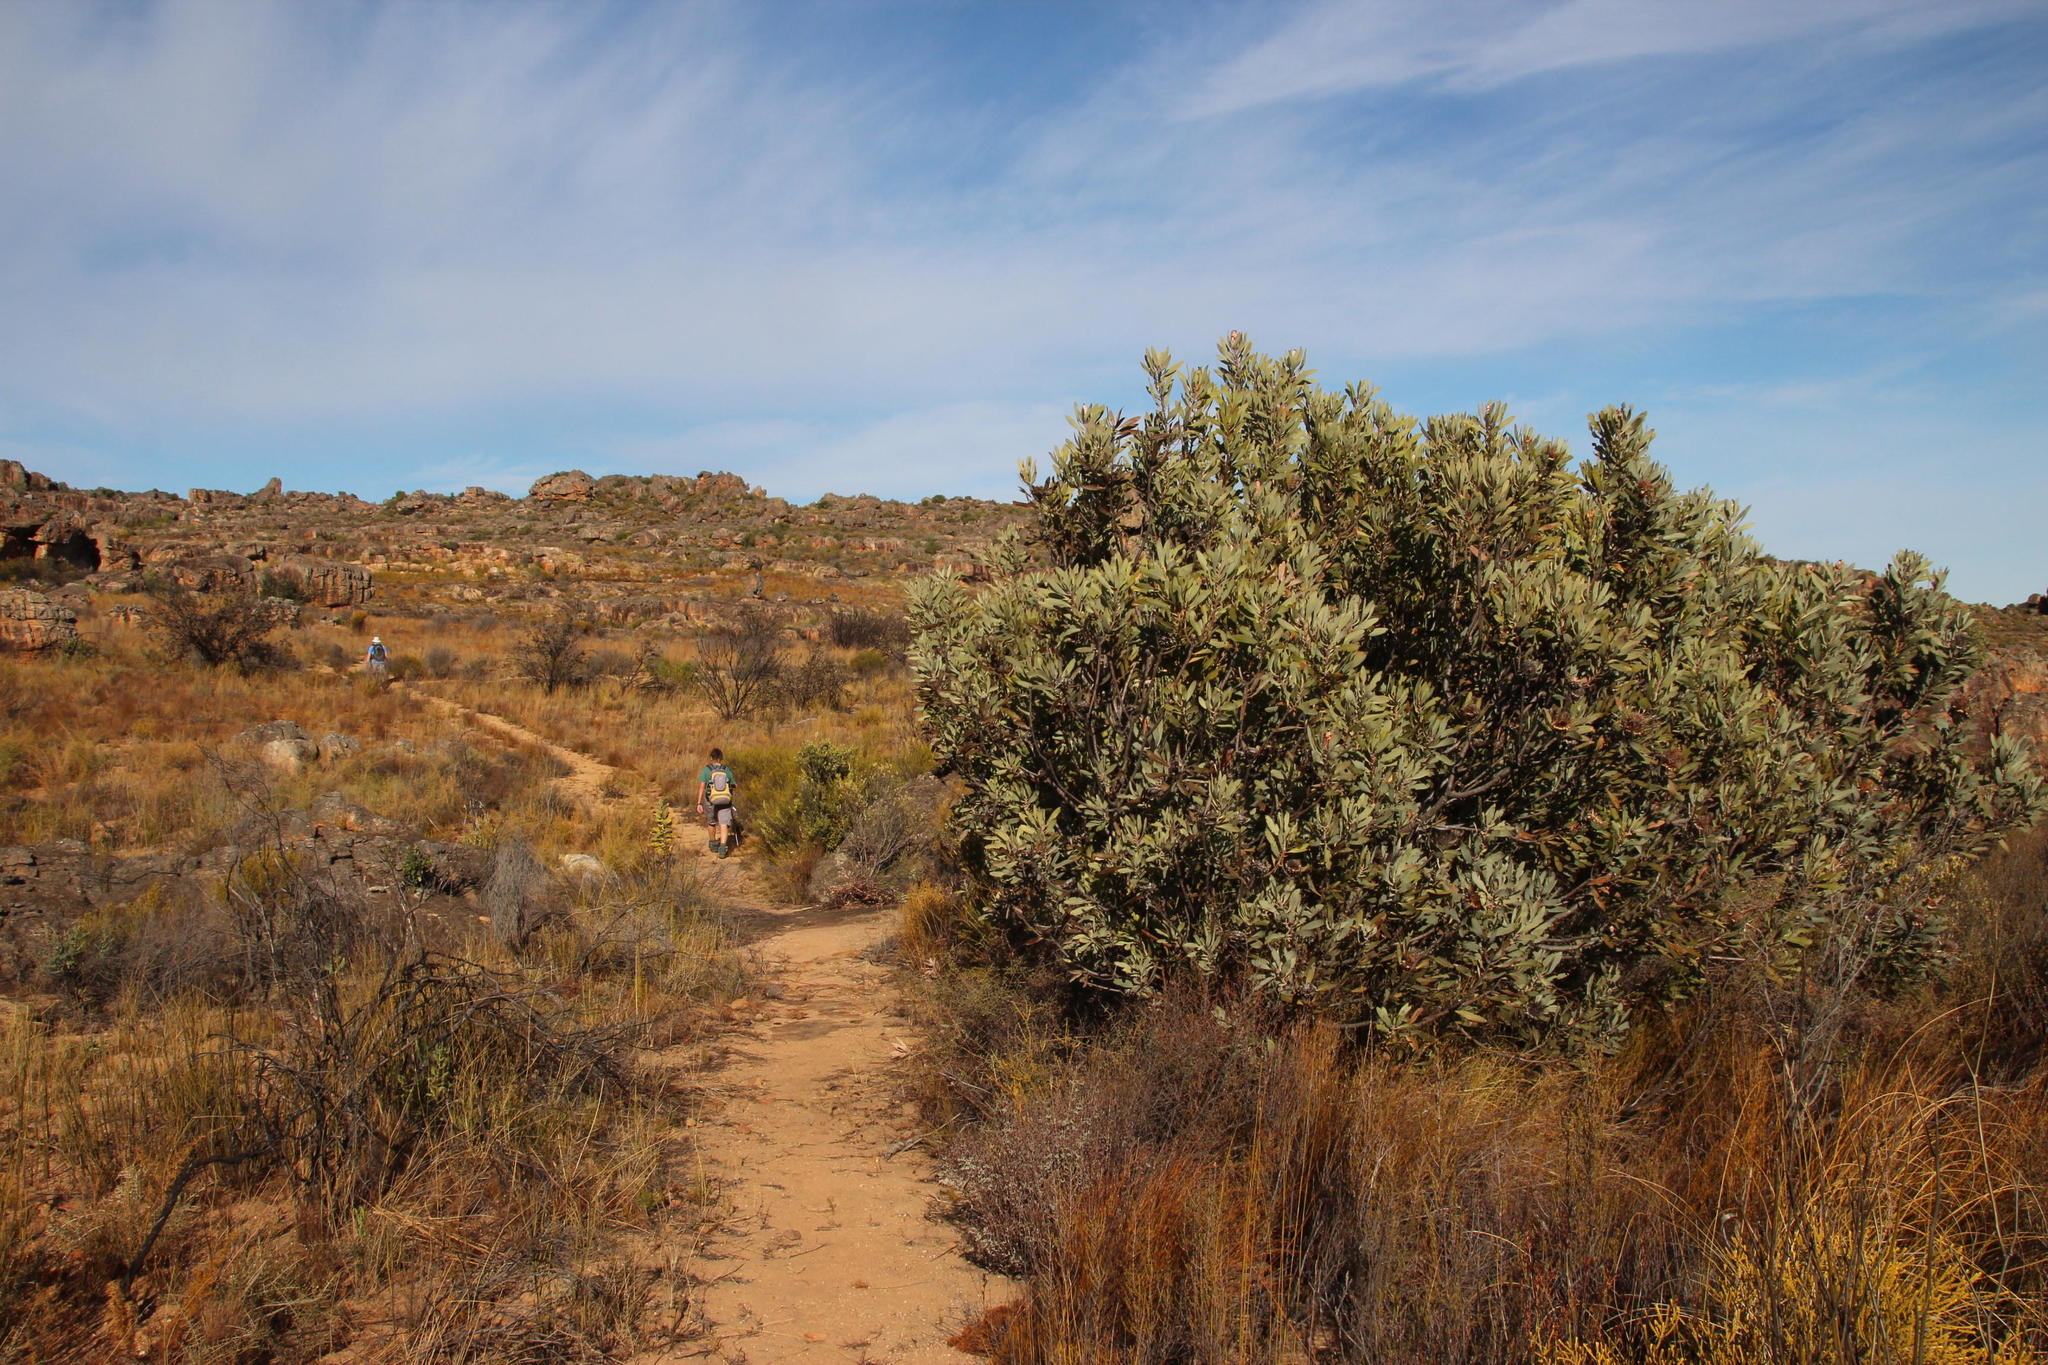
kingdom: Plantae
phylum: Tracheophyta
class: Magnoliopsida
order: Proteales
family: Proteaceae
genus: Protea
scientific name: Protea laurifolia
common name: Grey-leaf sugarbsh
